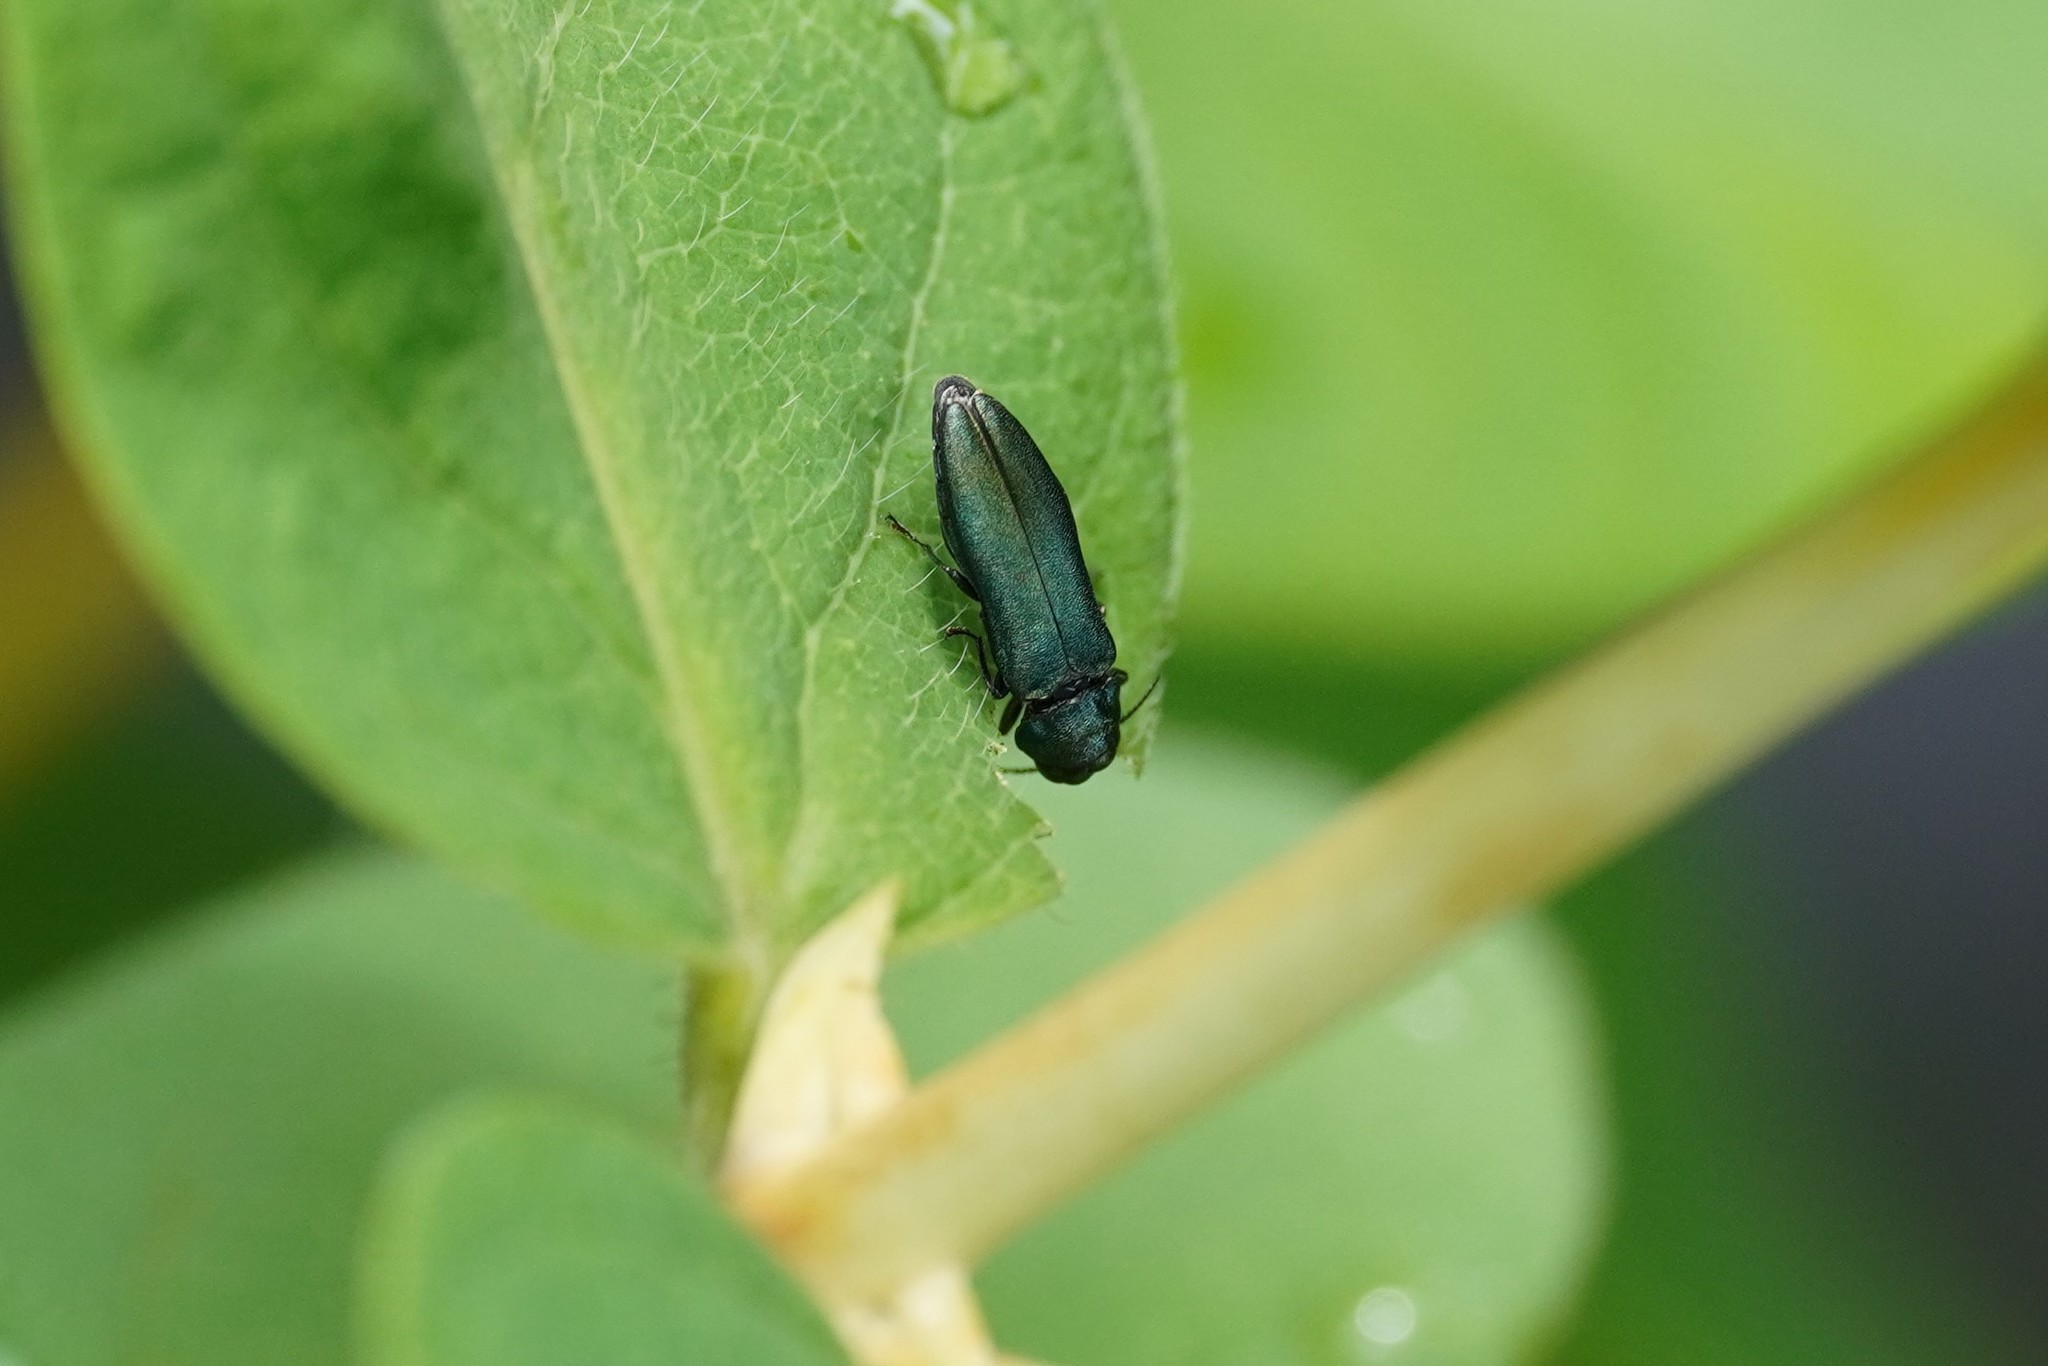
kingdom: Animalia
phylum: Arthropoda
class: Insecta
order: Coleoptera
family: Buprestidae
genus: Agrilus
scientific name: Agrilus cyanescens
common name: Bluish borer beetle
